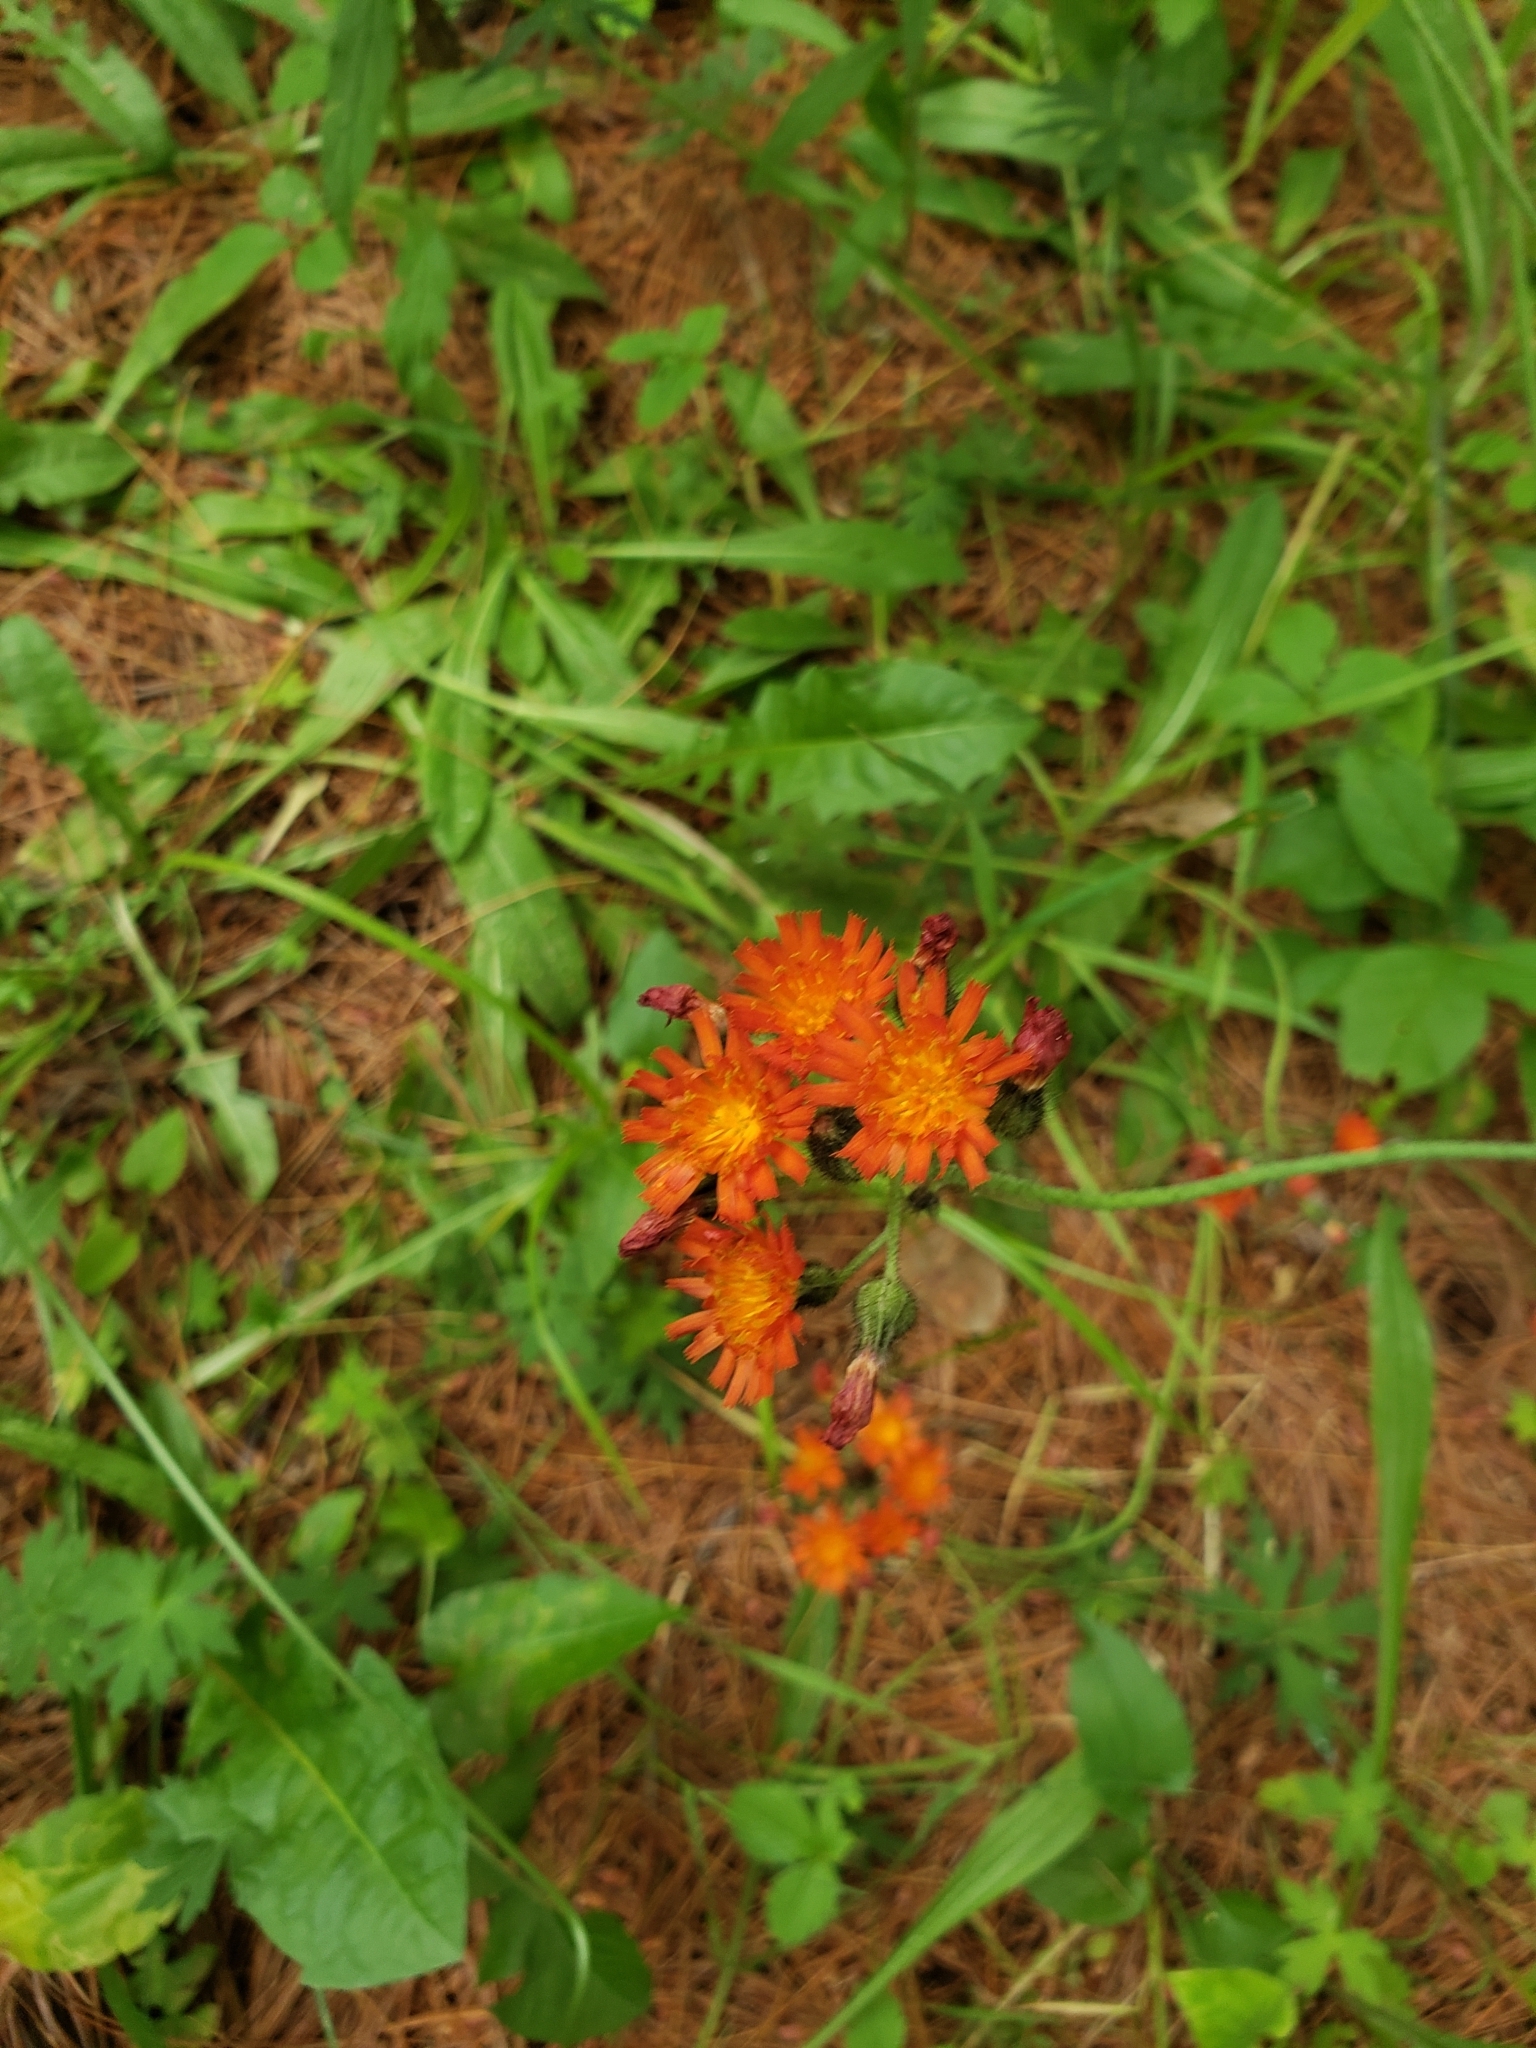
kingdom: Plantae
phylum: Tracheophyta
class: Magnoliopsida
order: Asterales
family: Asteraceae
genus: Pilosella
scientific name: Pilosella aurantiaca
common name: Fox-and-cubs
